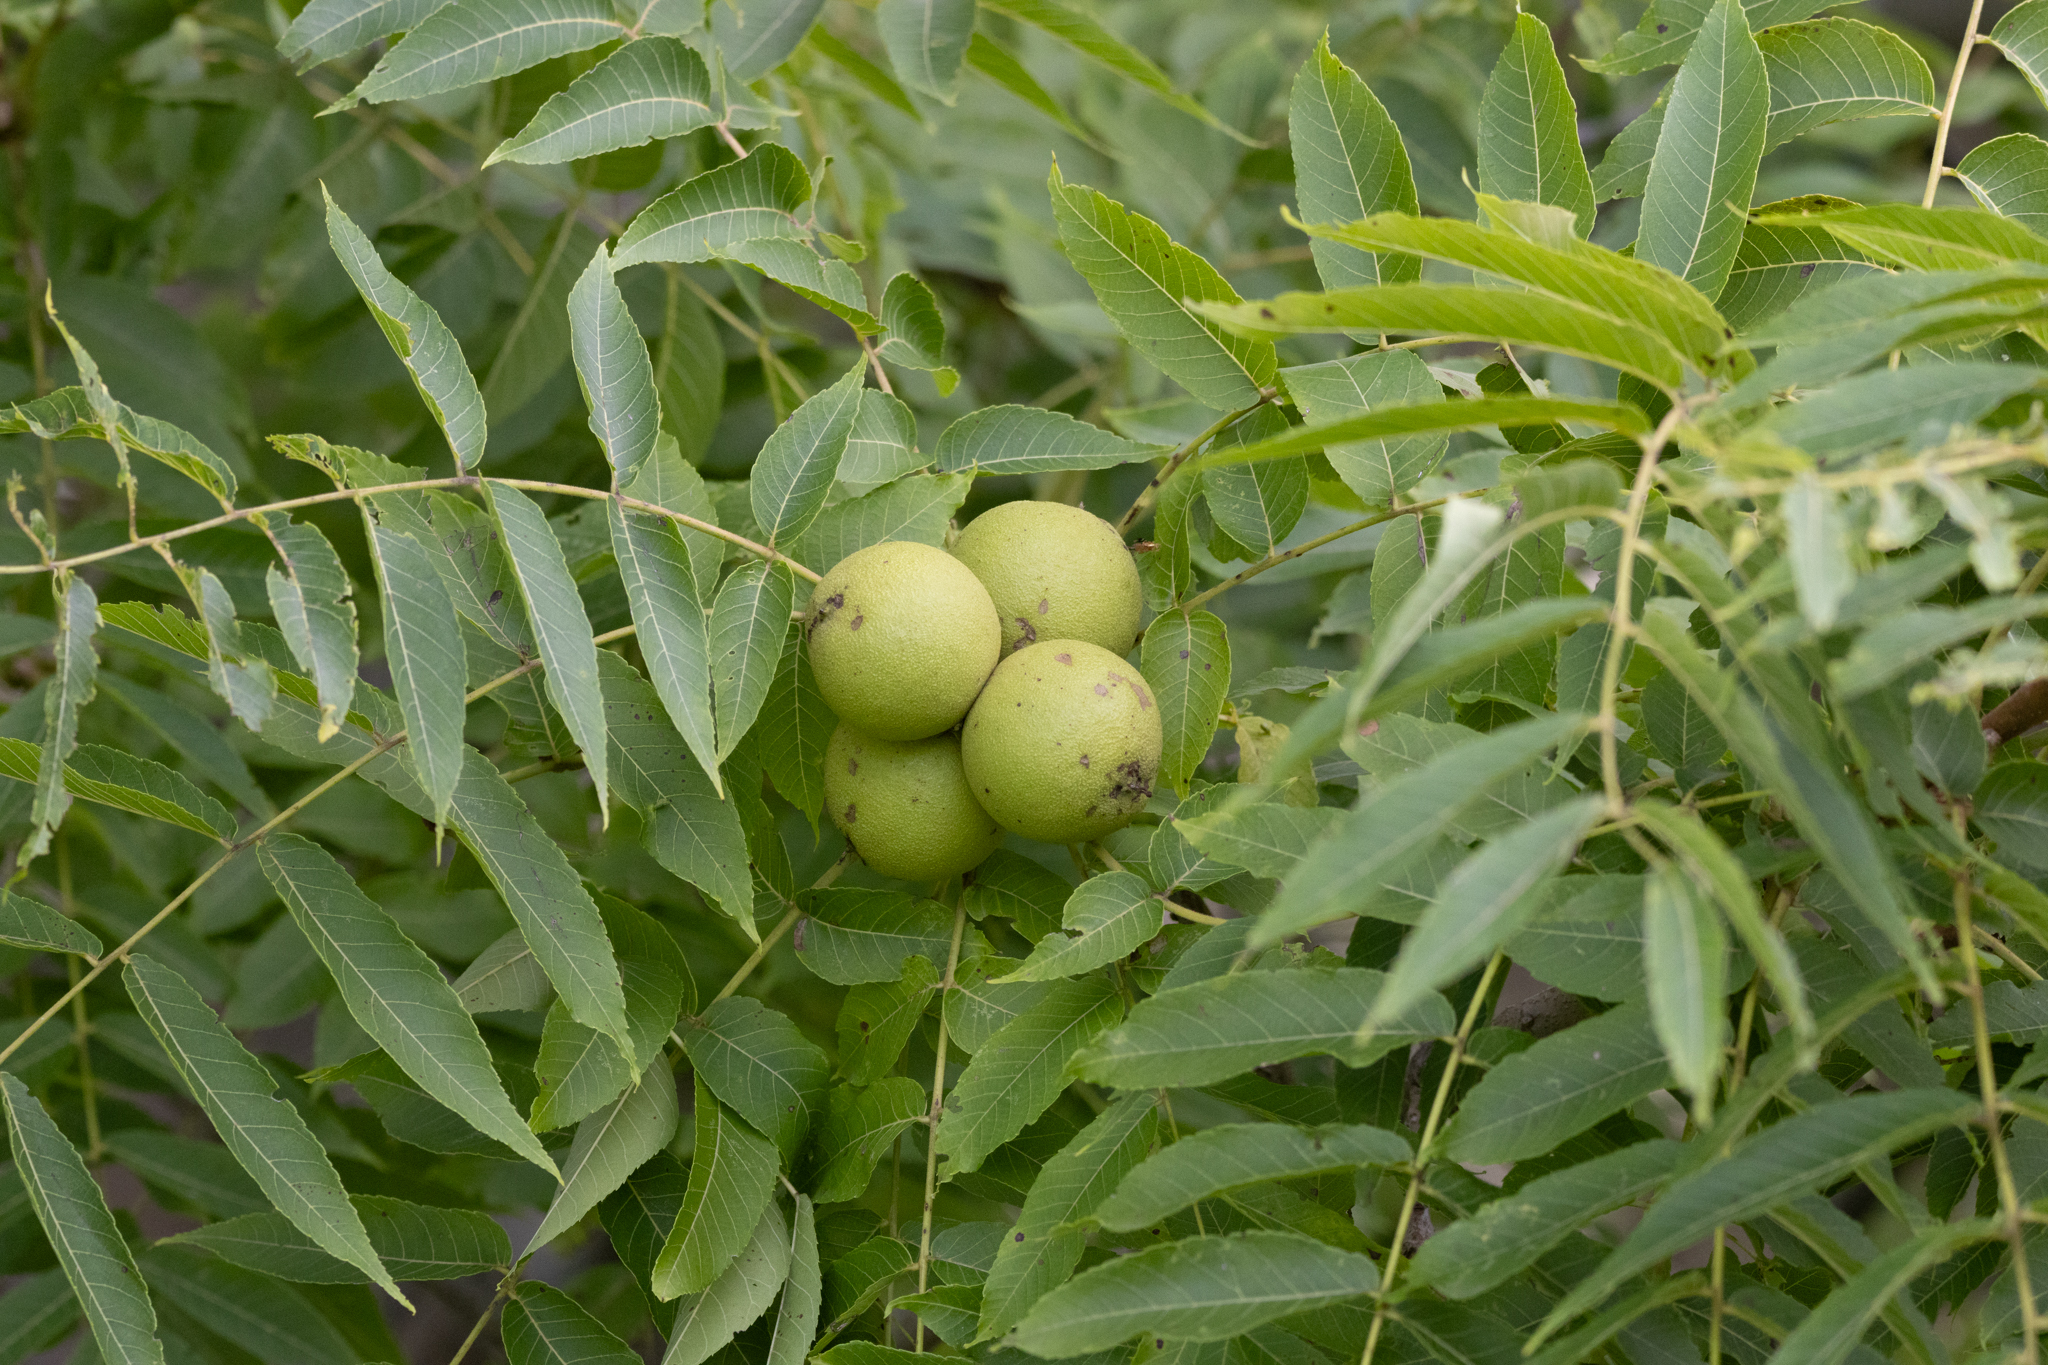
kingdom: Plantae
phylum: Tracheophyta
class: Magnoliopsida
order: Fagales
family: Juglandaceae
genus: Juglans
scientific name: Juglans nigra
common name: Black walnut
